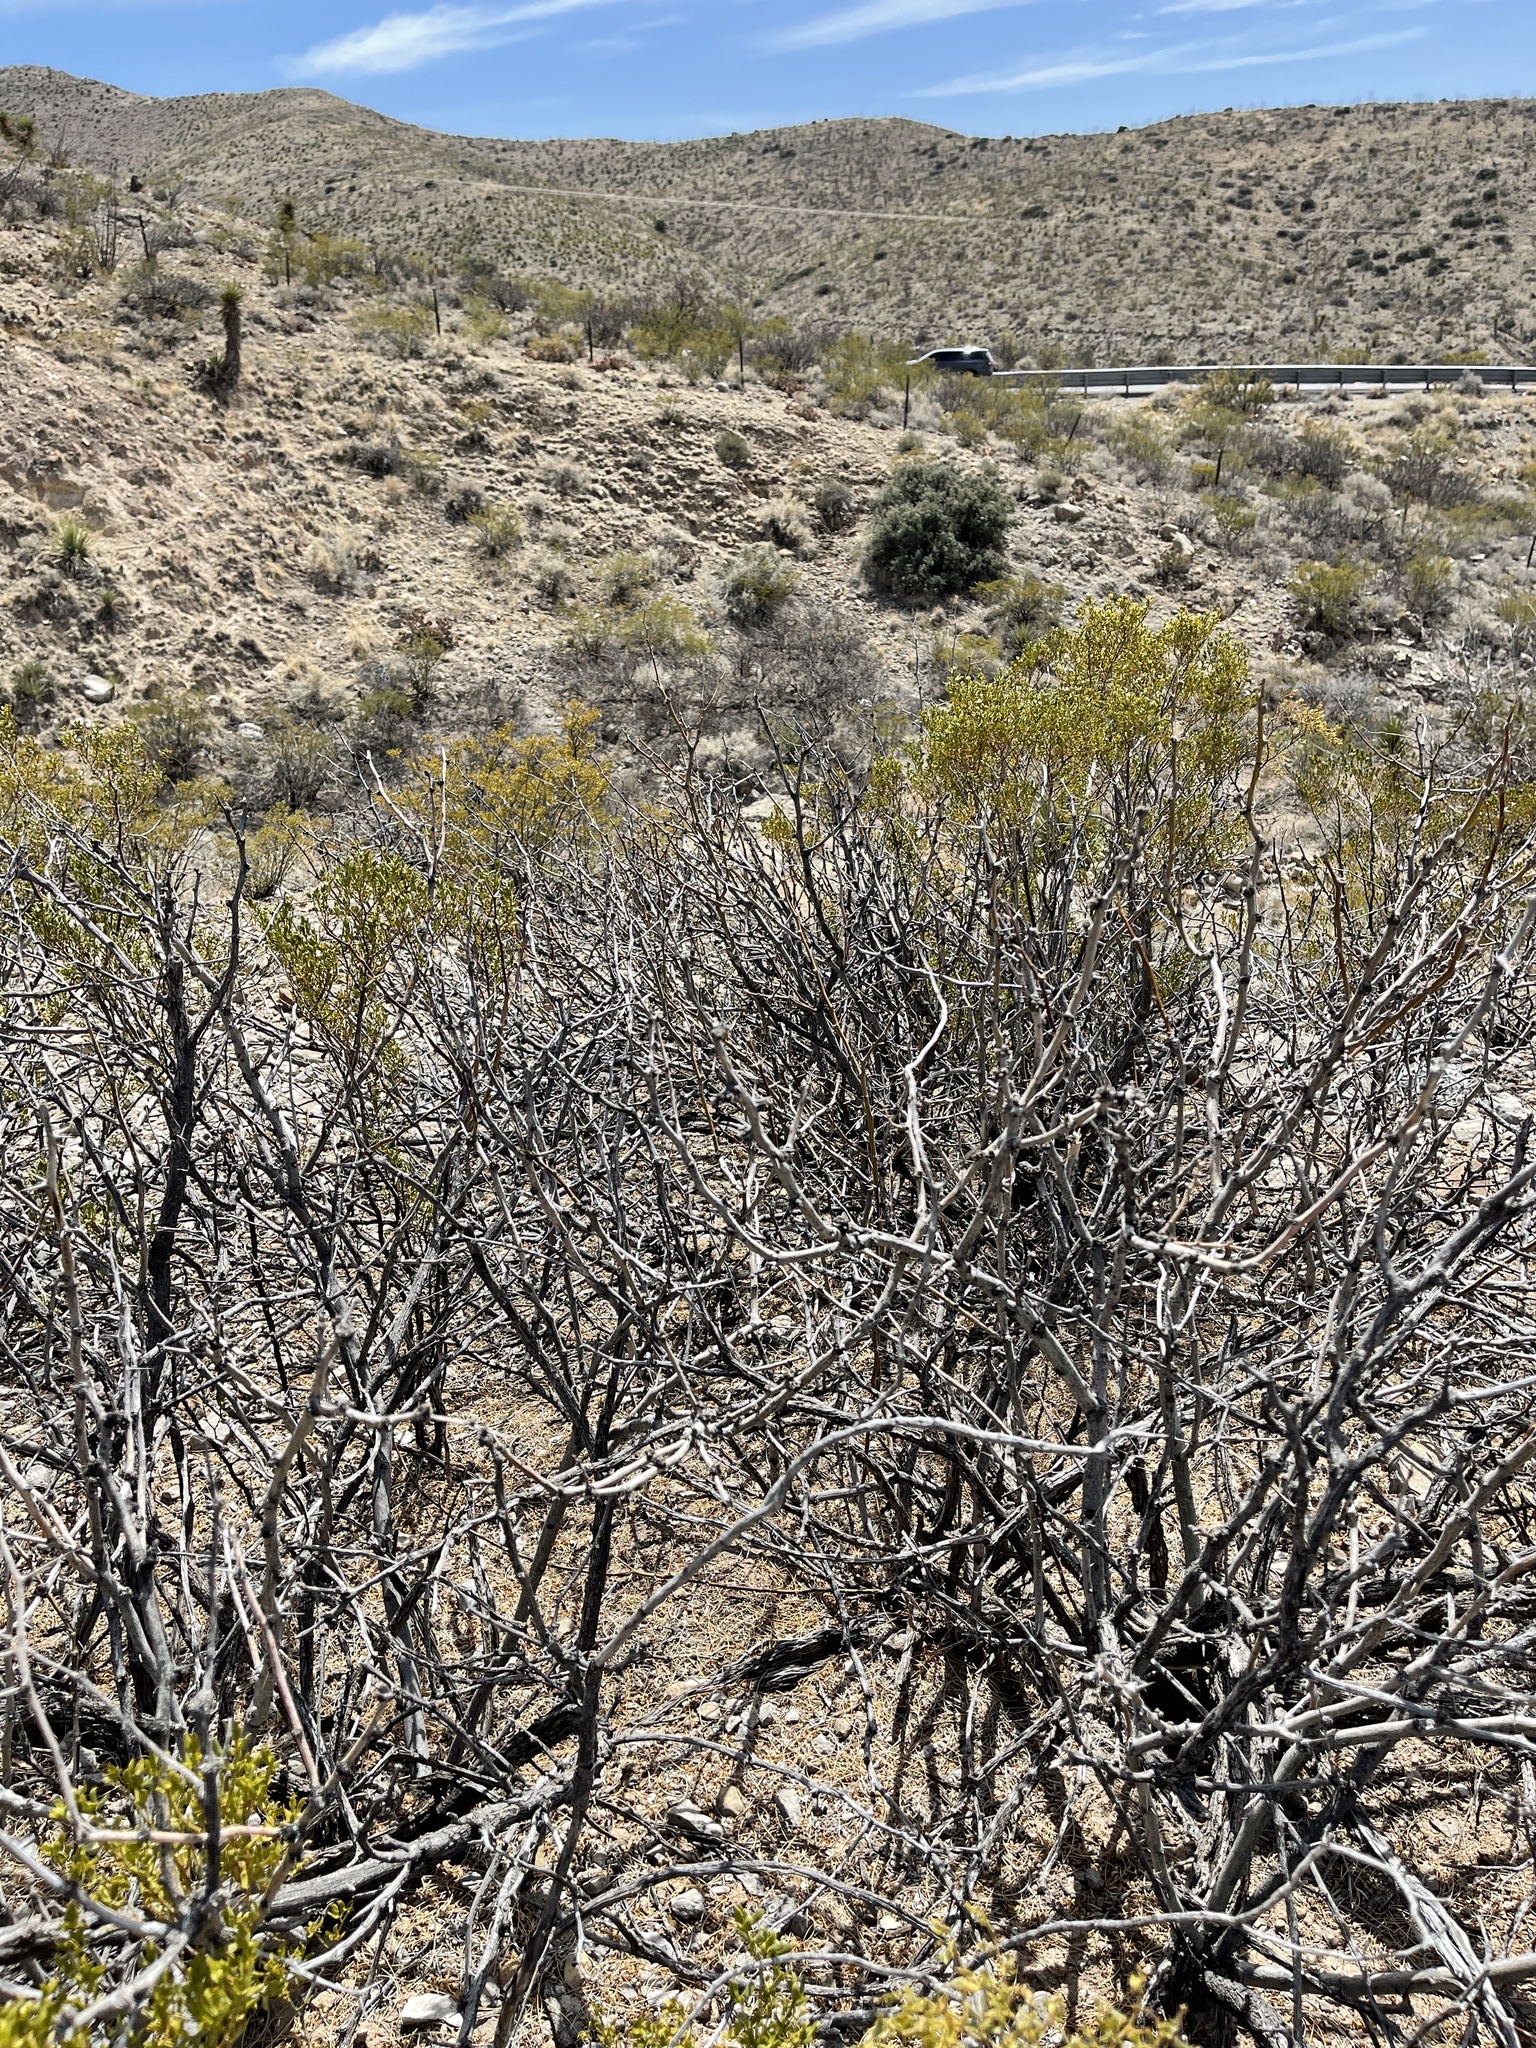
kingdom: Plantae
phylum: Tracheophyta
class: Magnoliopsida
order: Fabales
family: Fabaceae
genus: Prosopis
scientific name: Prosopis glandulosa
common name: Honey mesquite
